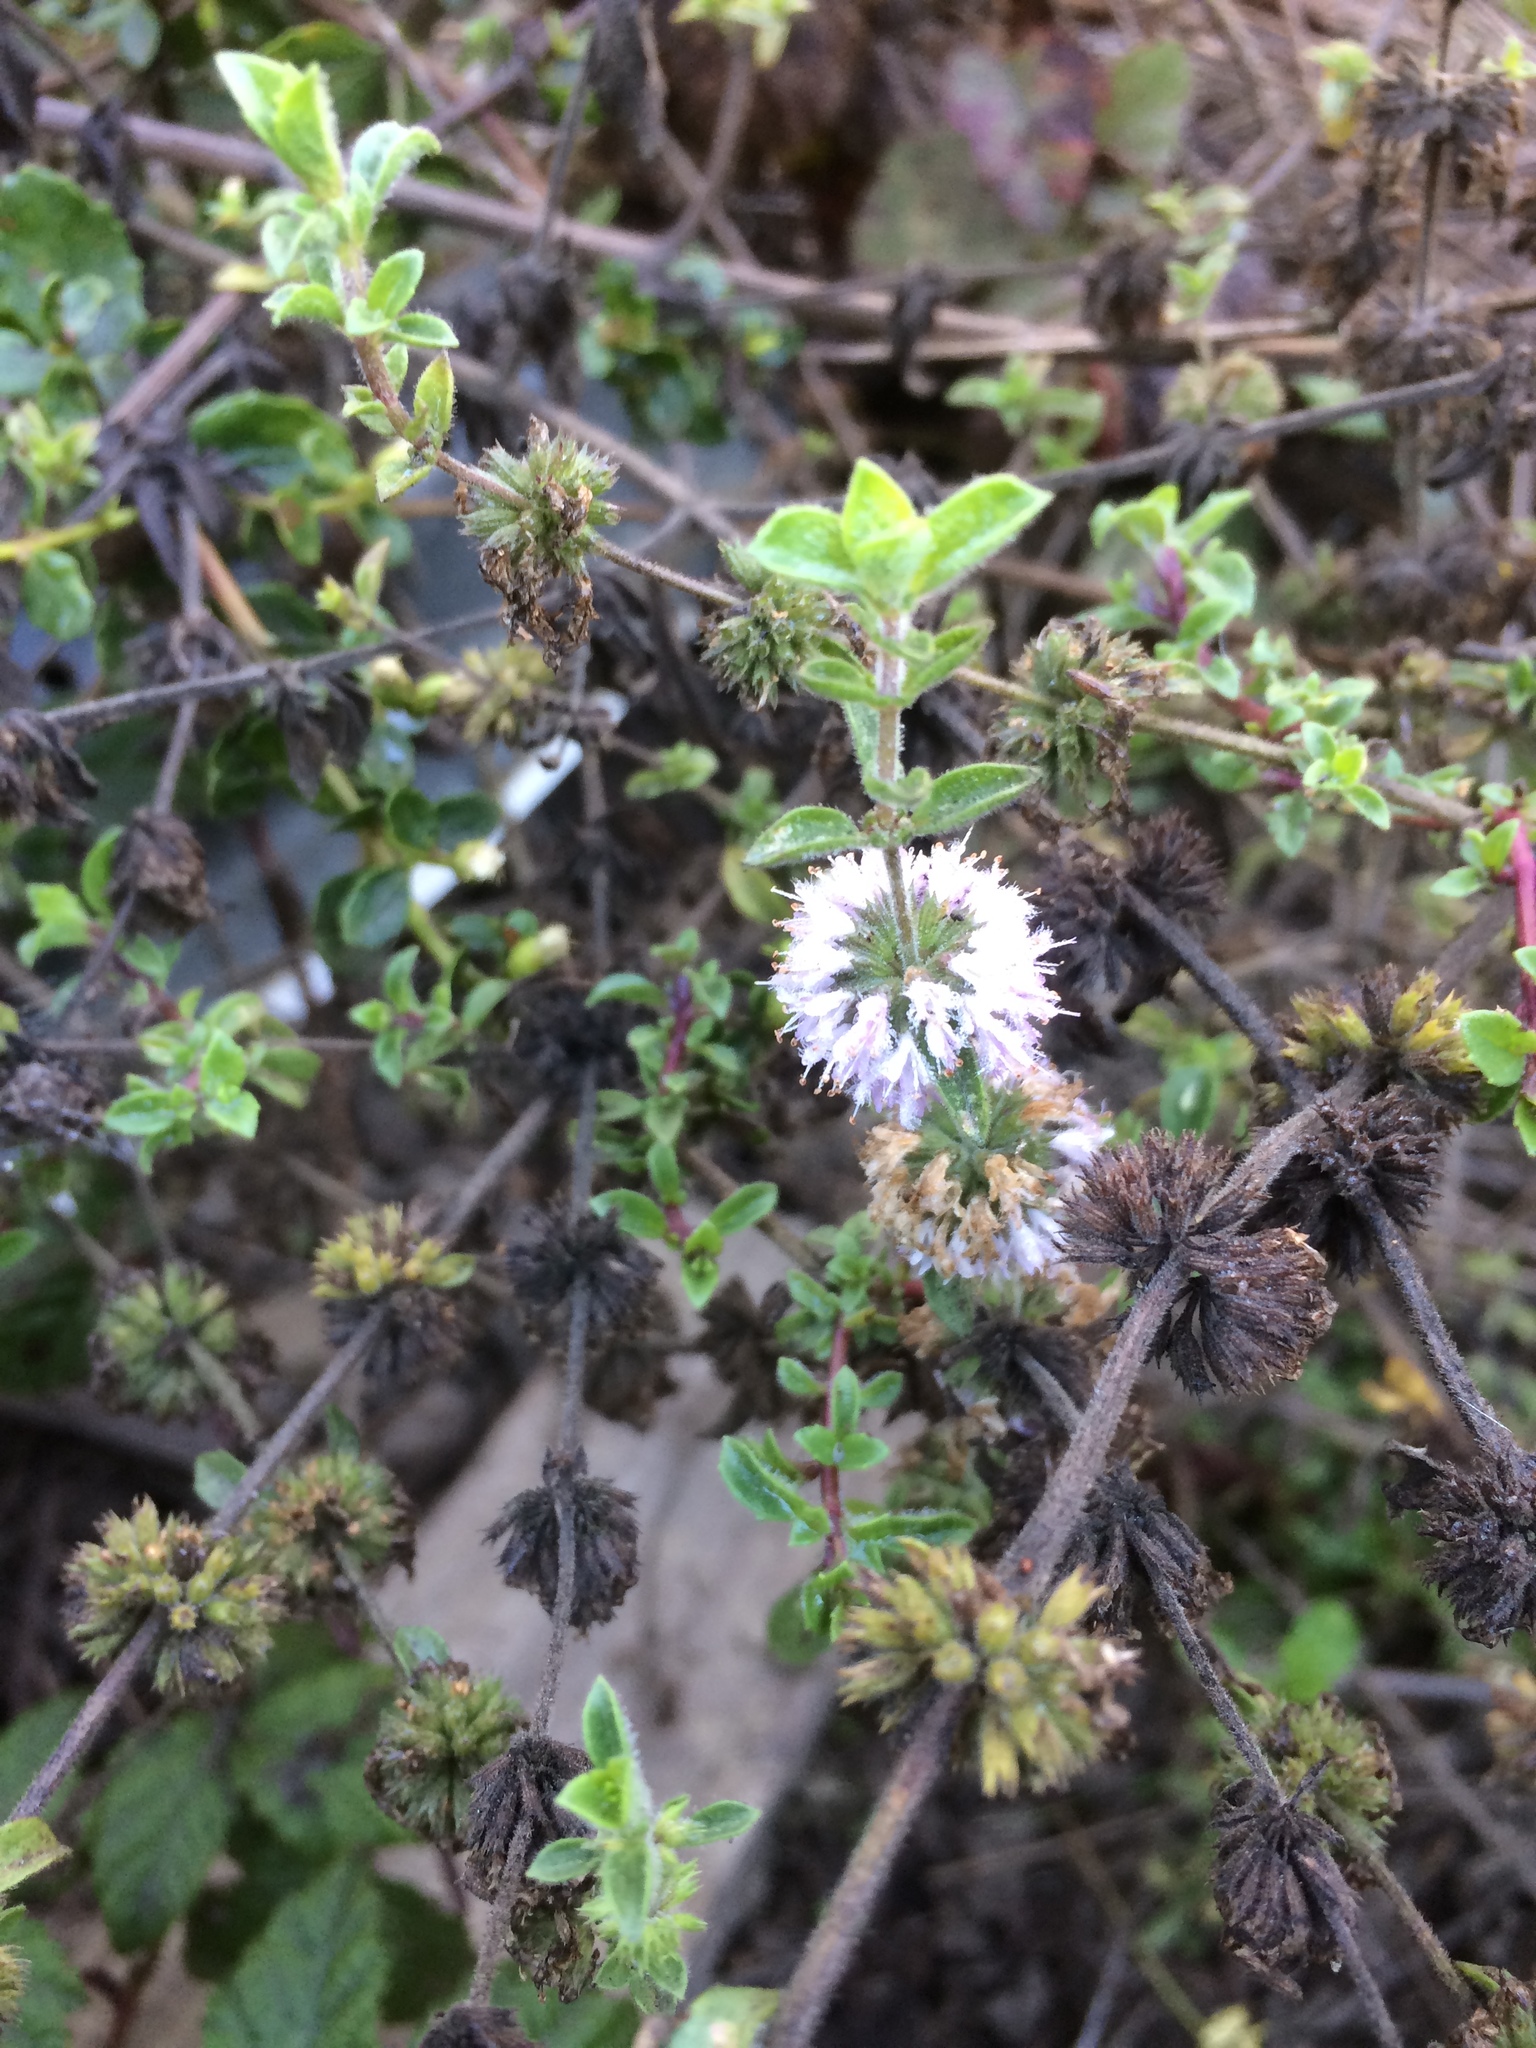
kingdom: Plantae
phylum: Tracheophyta
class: Magnoliopsida
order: Lamiales
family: Lamiaceae
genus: Mentha
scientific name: Mentha pulegium
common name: Pennyroyal
